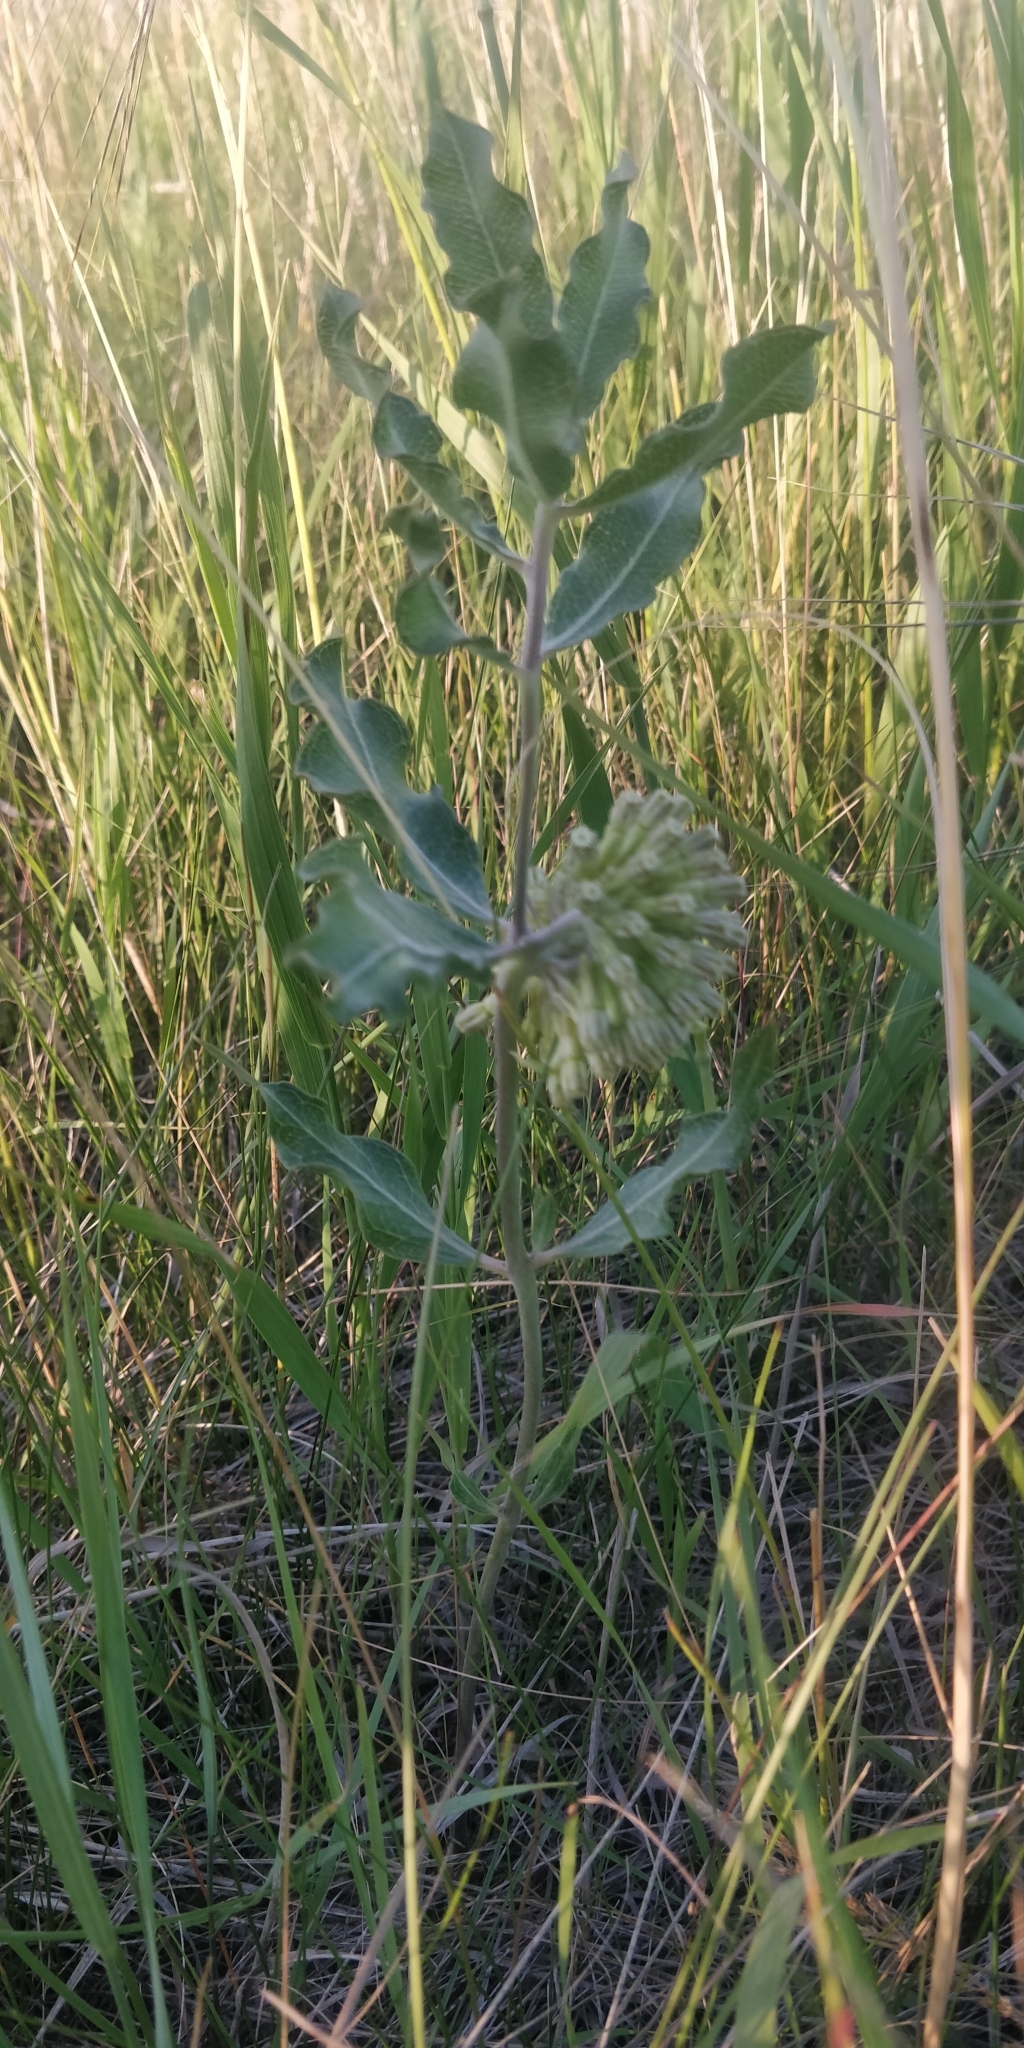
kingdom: Plantae
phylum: Tracheophyta
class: Magnoliopsida
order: Gentianales
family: Apocynaceae
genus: Asclepias
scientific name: Asclepias viridiflora
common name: Green comet milkweed
